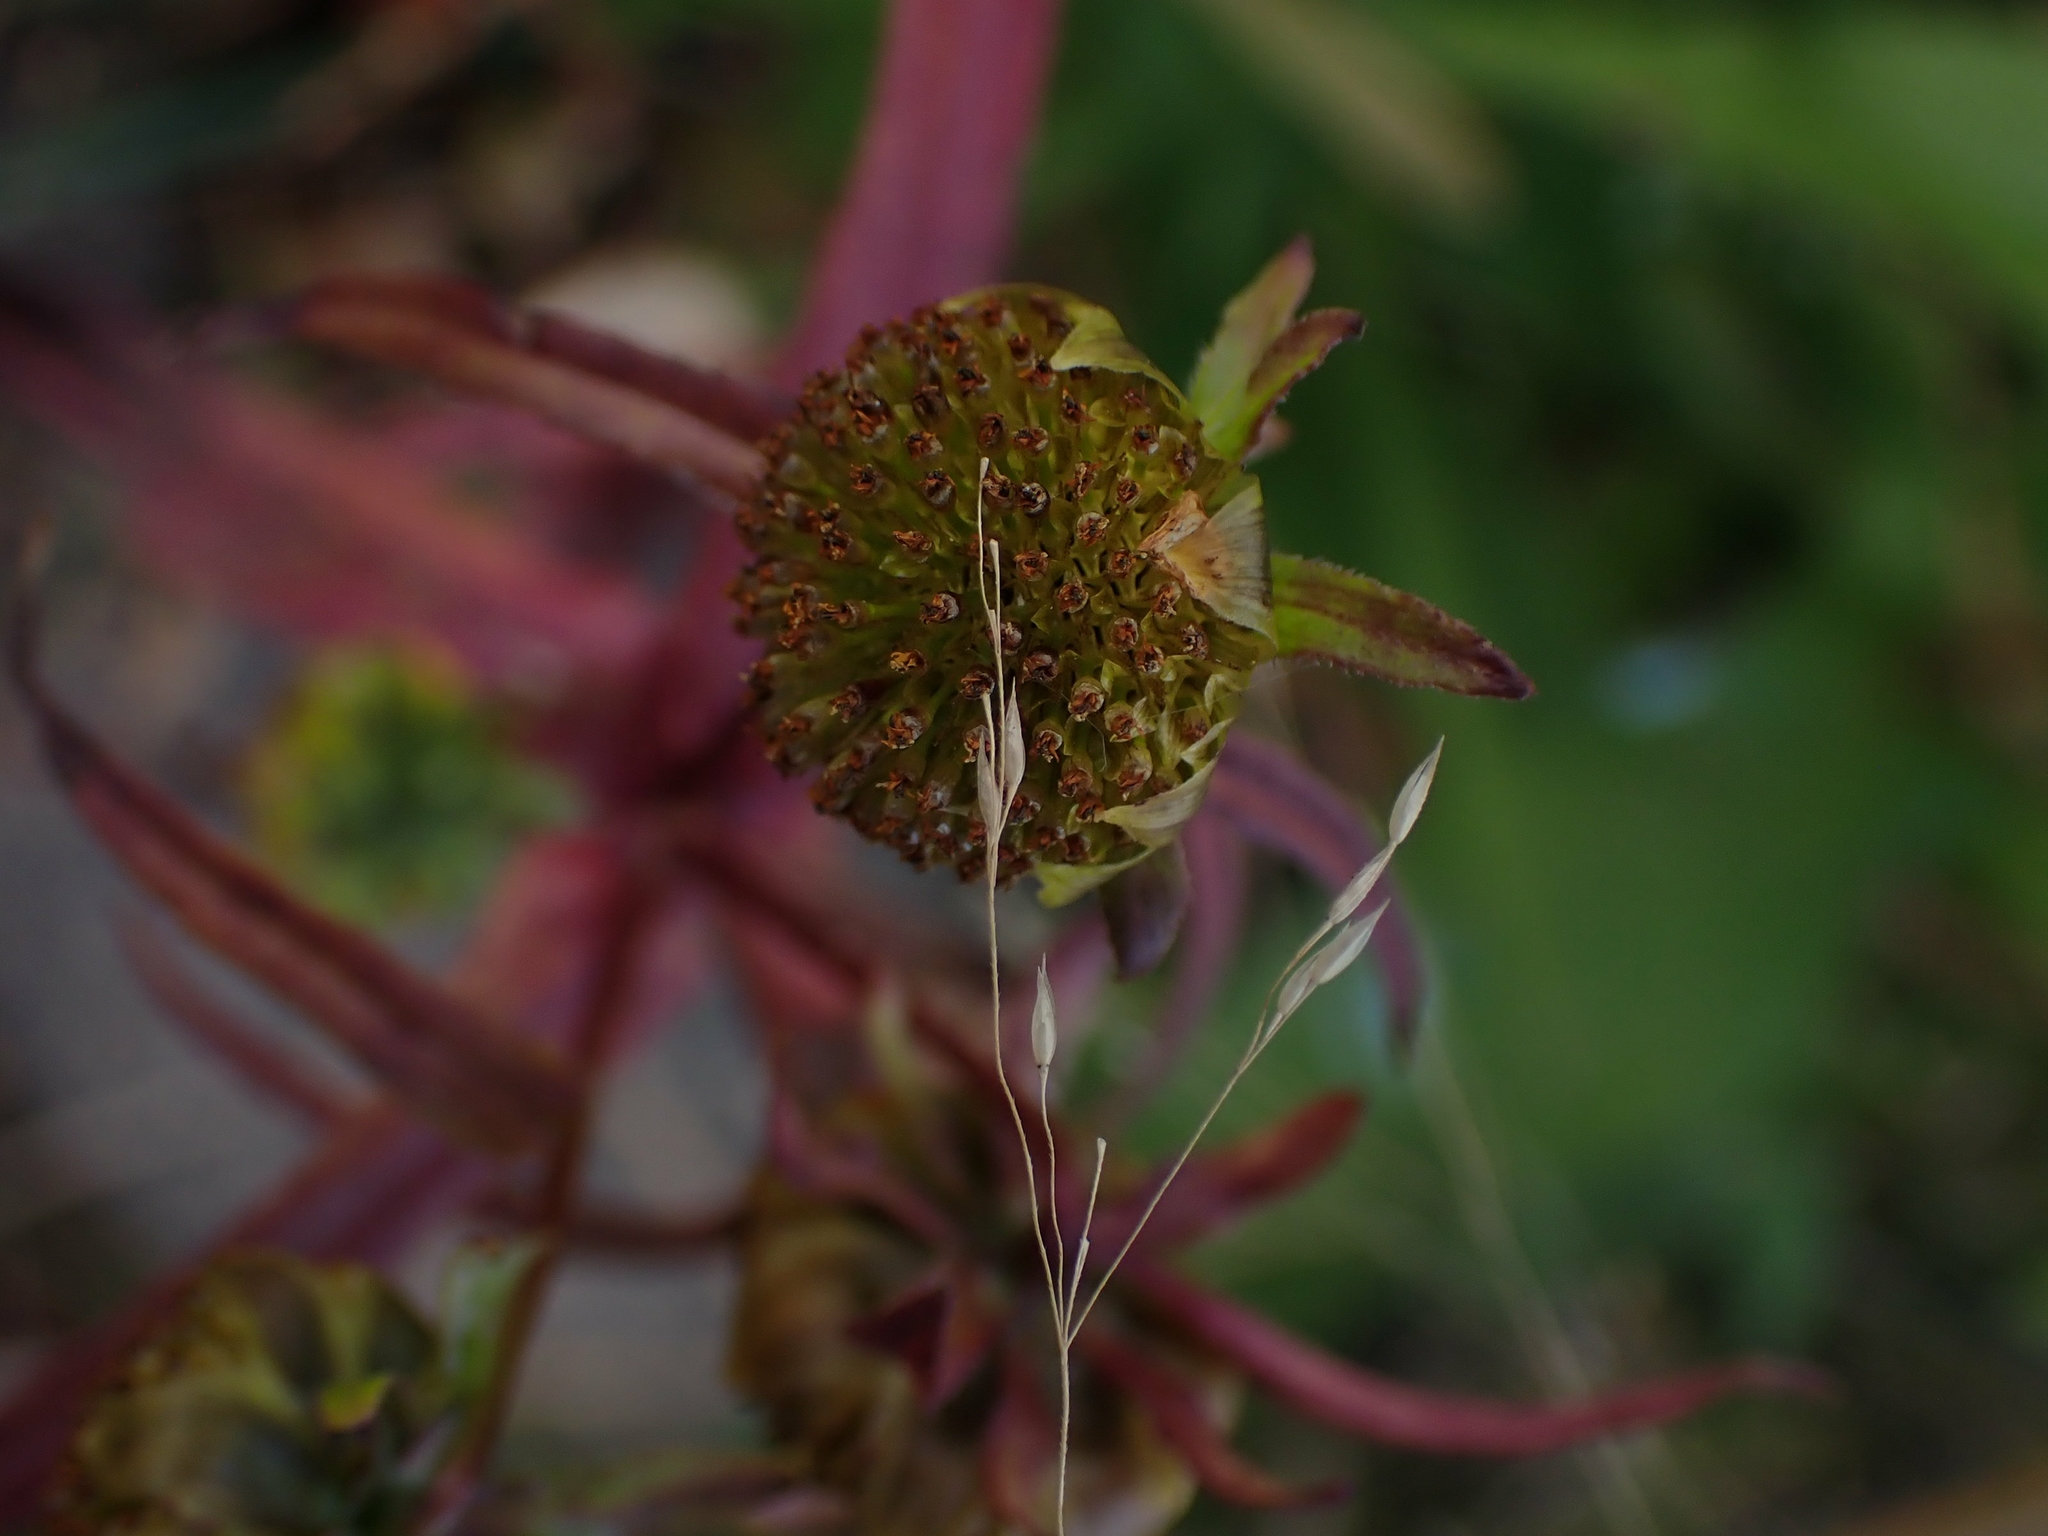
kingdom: Plantae
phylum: Tracheophyta
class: Magnoliopsida
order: Asterales
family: Asteraceae
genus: Bidens
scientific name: Bidens cernua
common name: Nodding bur-marigold
